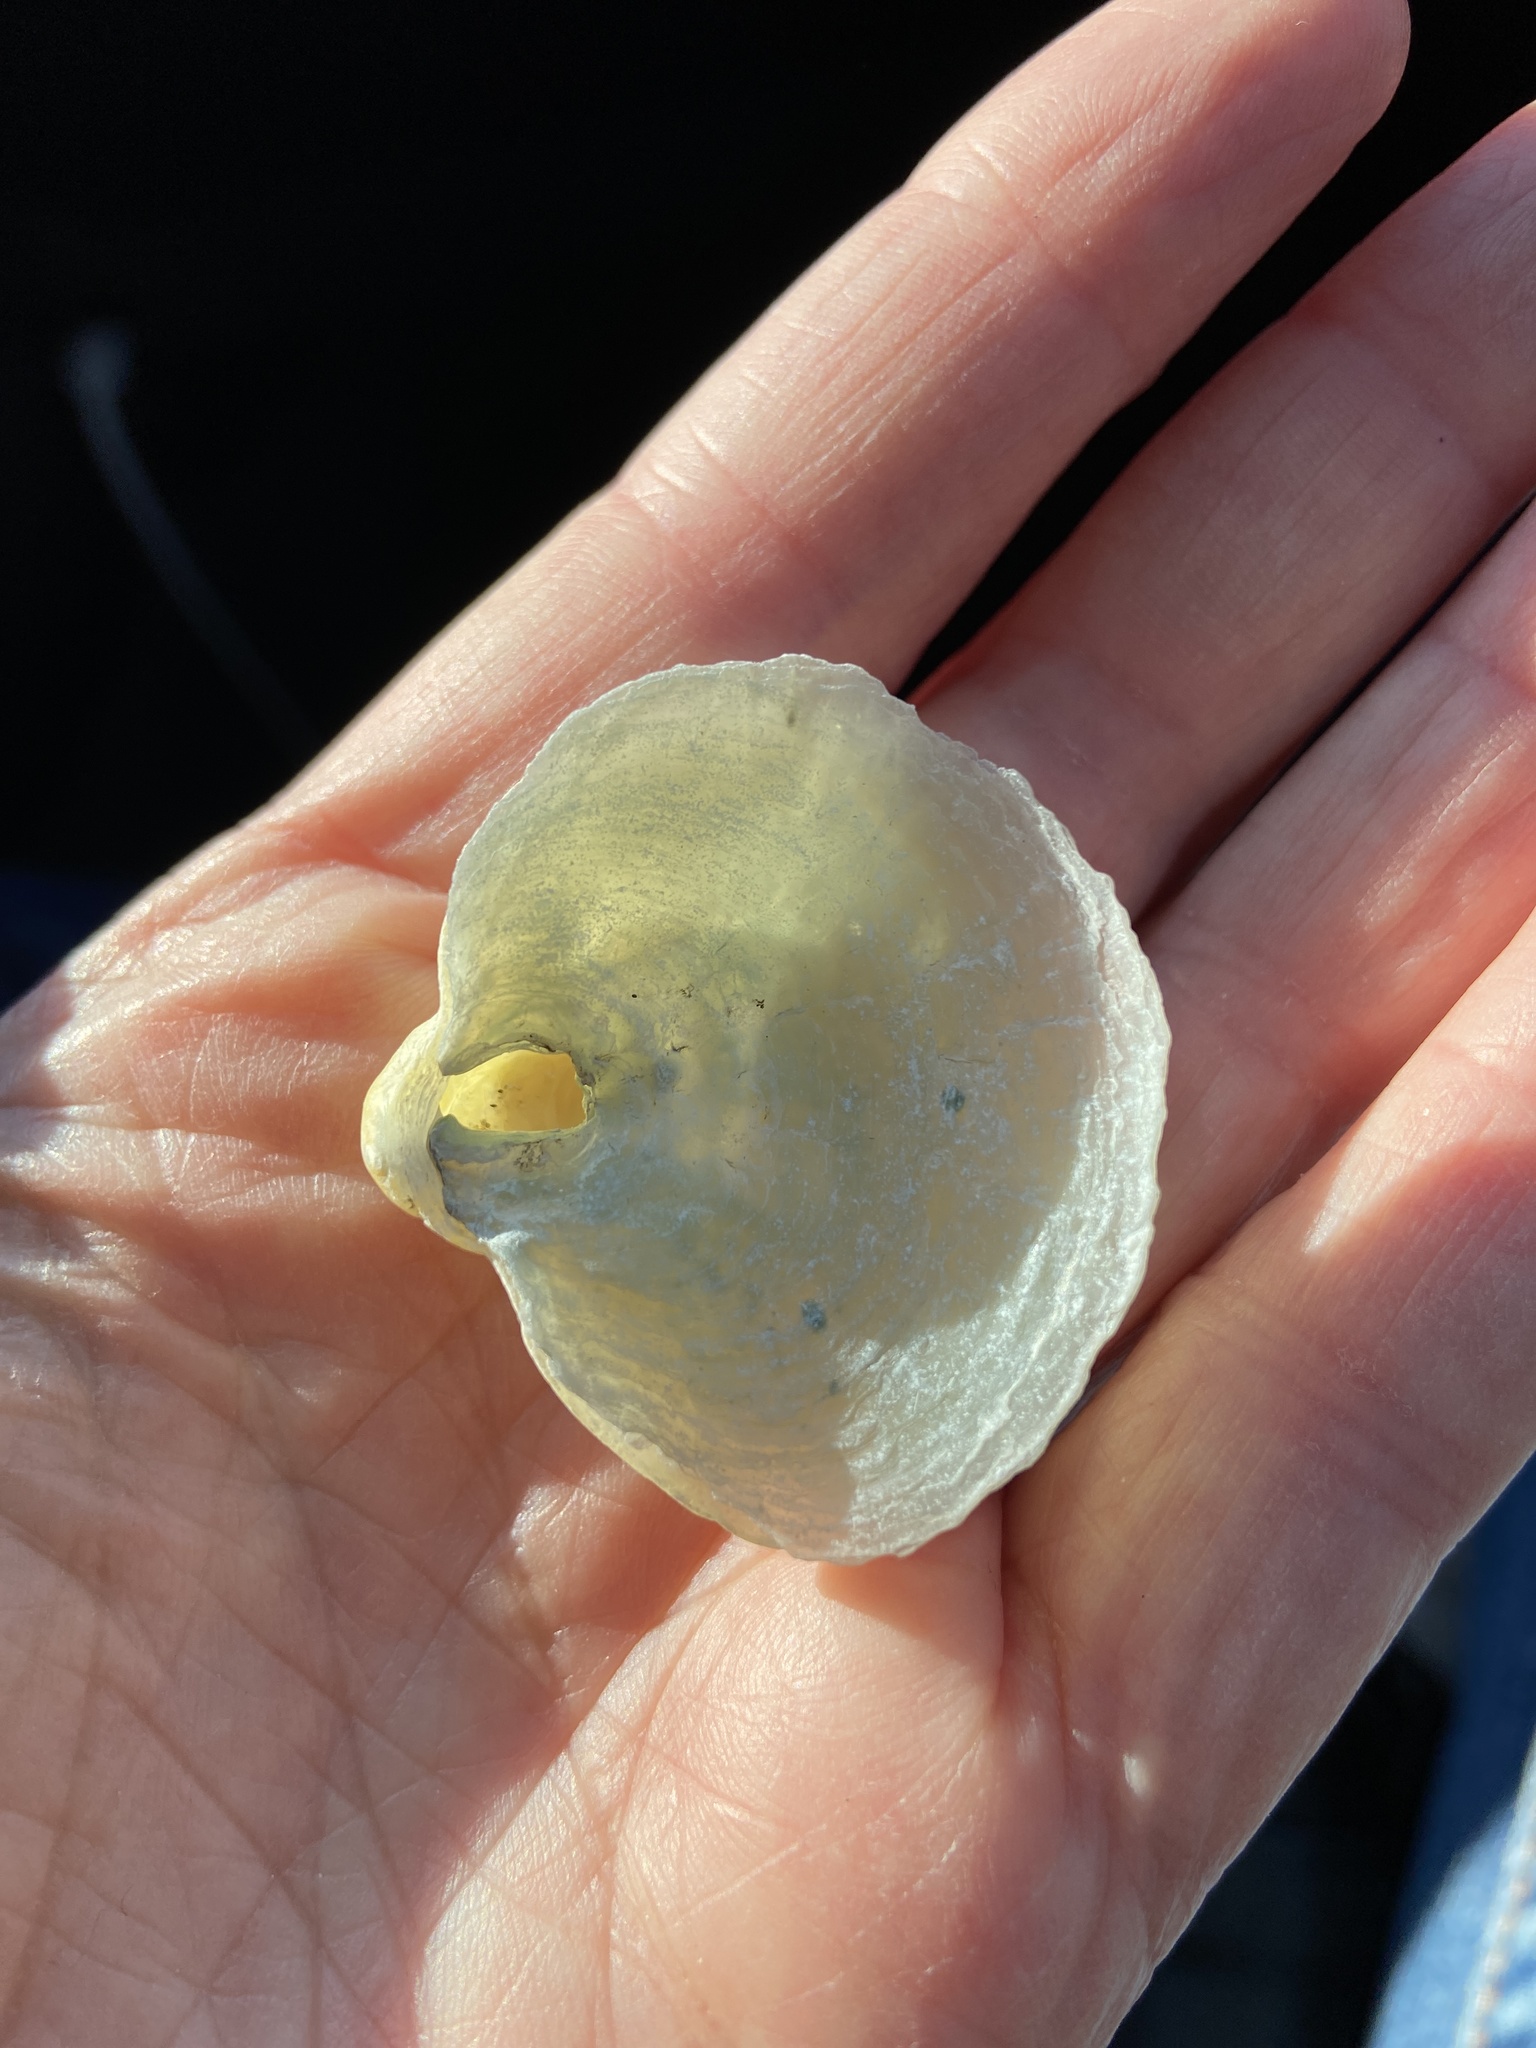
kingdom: Animalia
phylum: Mollusca
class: Bivalvia
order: Pectinida
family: Anomiidae
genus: Anomia
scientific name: Anomia simplex
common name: Common jingle shell
